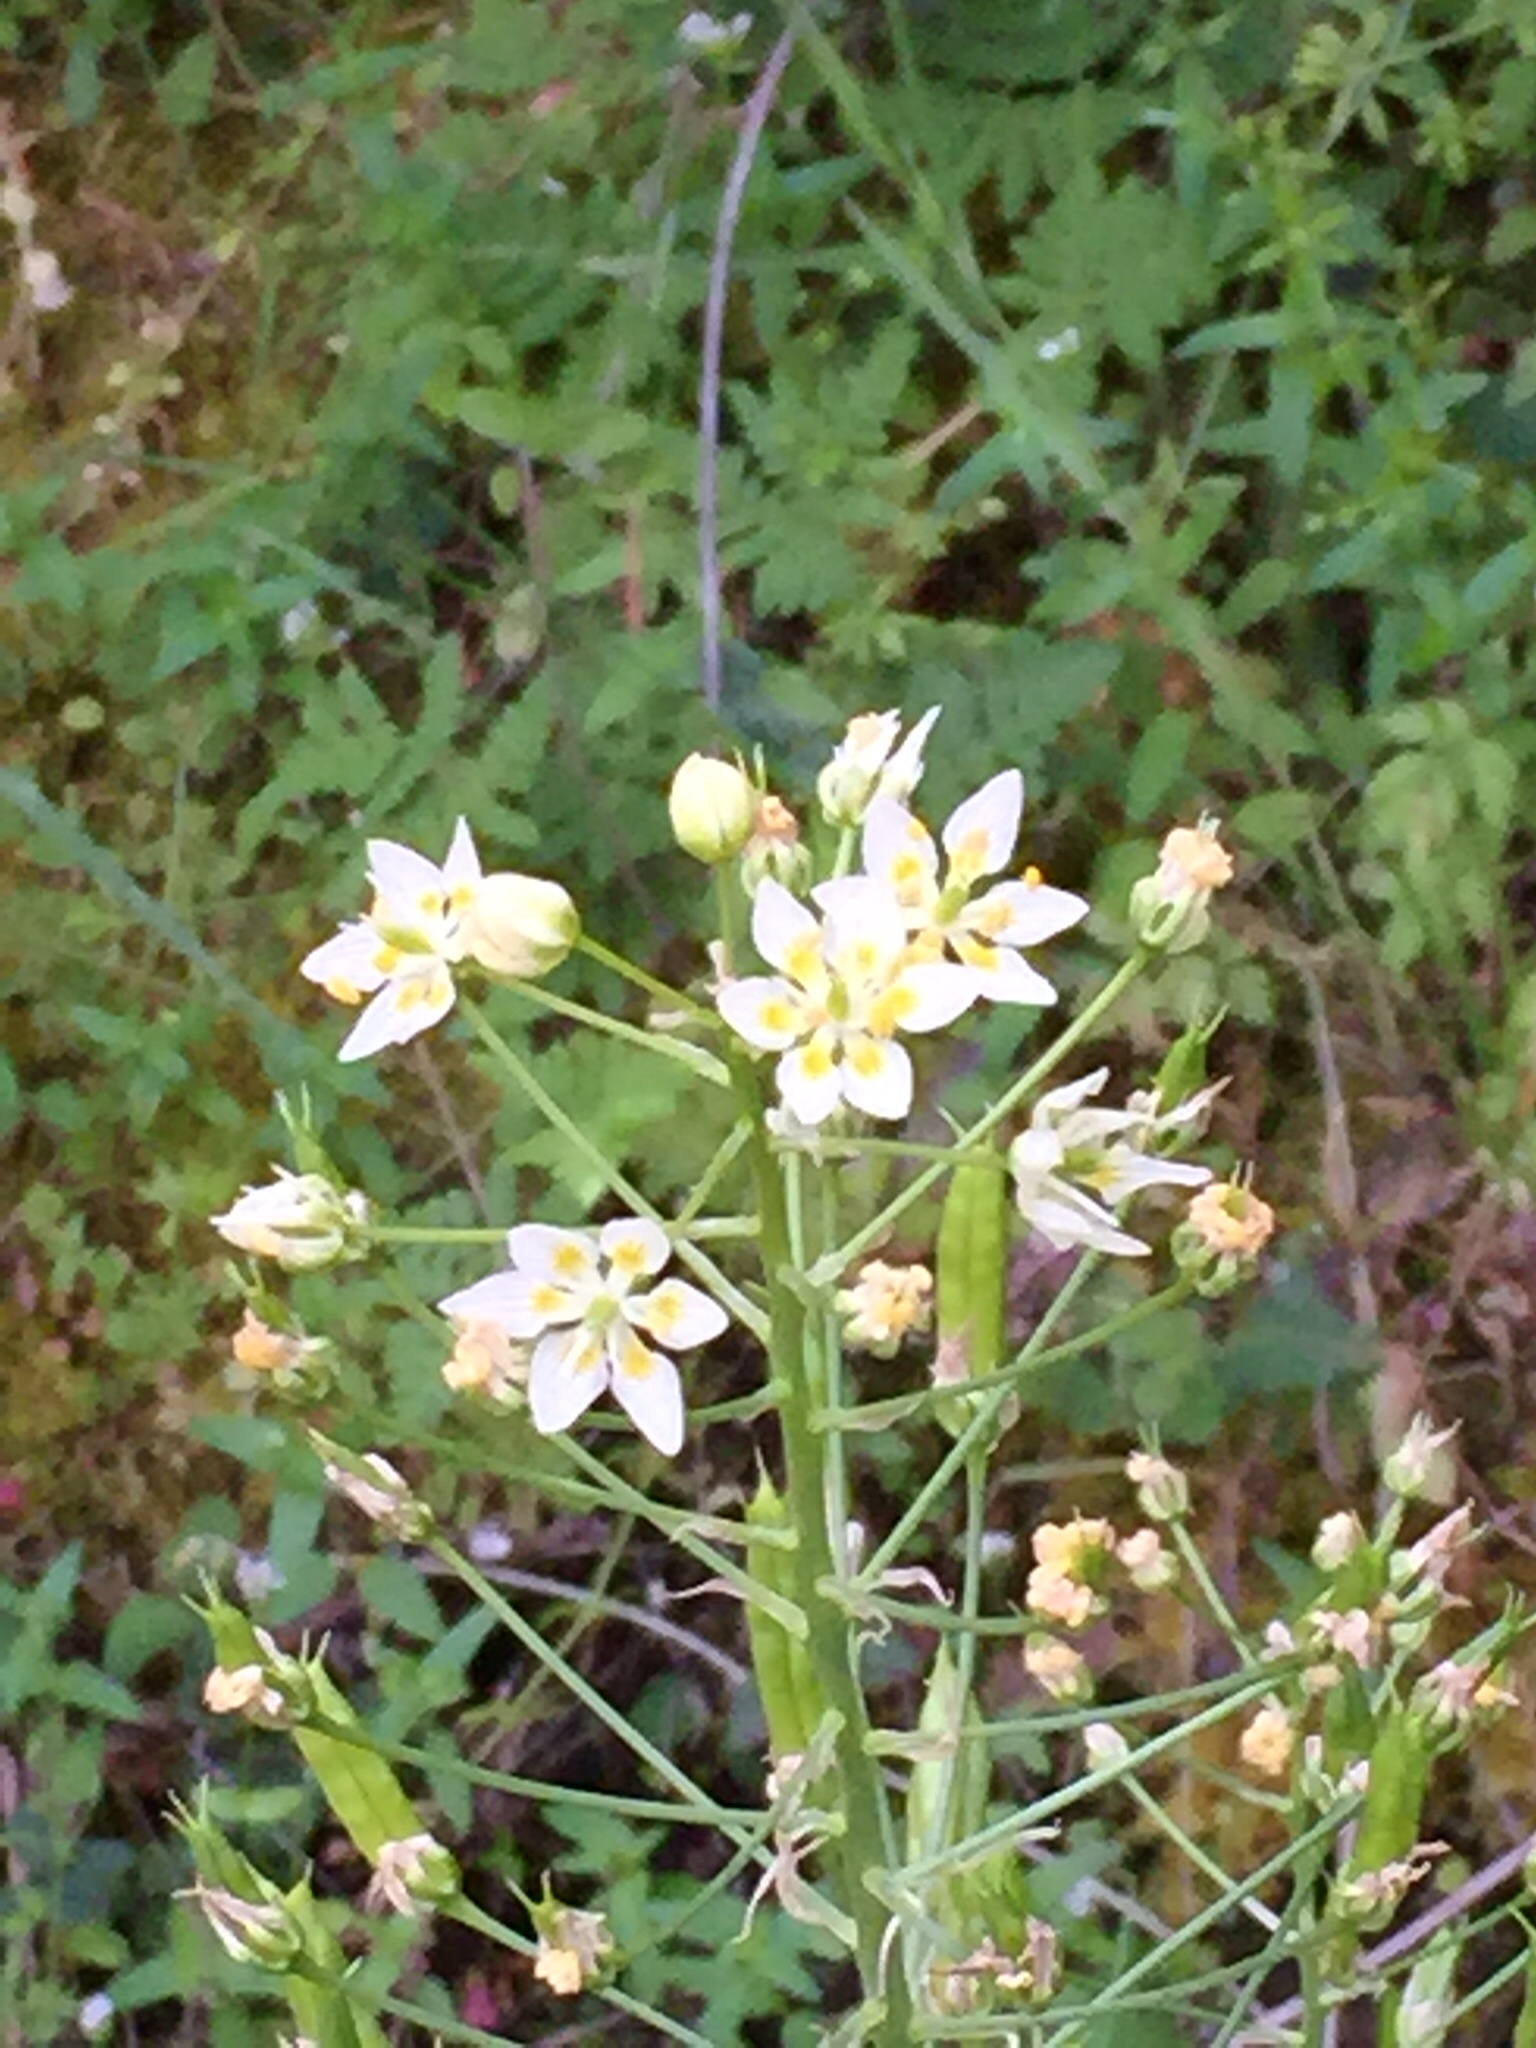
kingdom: Plantae
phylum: Tracheophyta
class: Liliopsida
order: Liliales
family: Melanthiaceae
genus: Toxicoscordion
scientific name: Toxicoscordion fremontii
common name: Fremont's death camas
